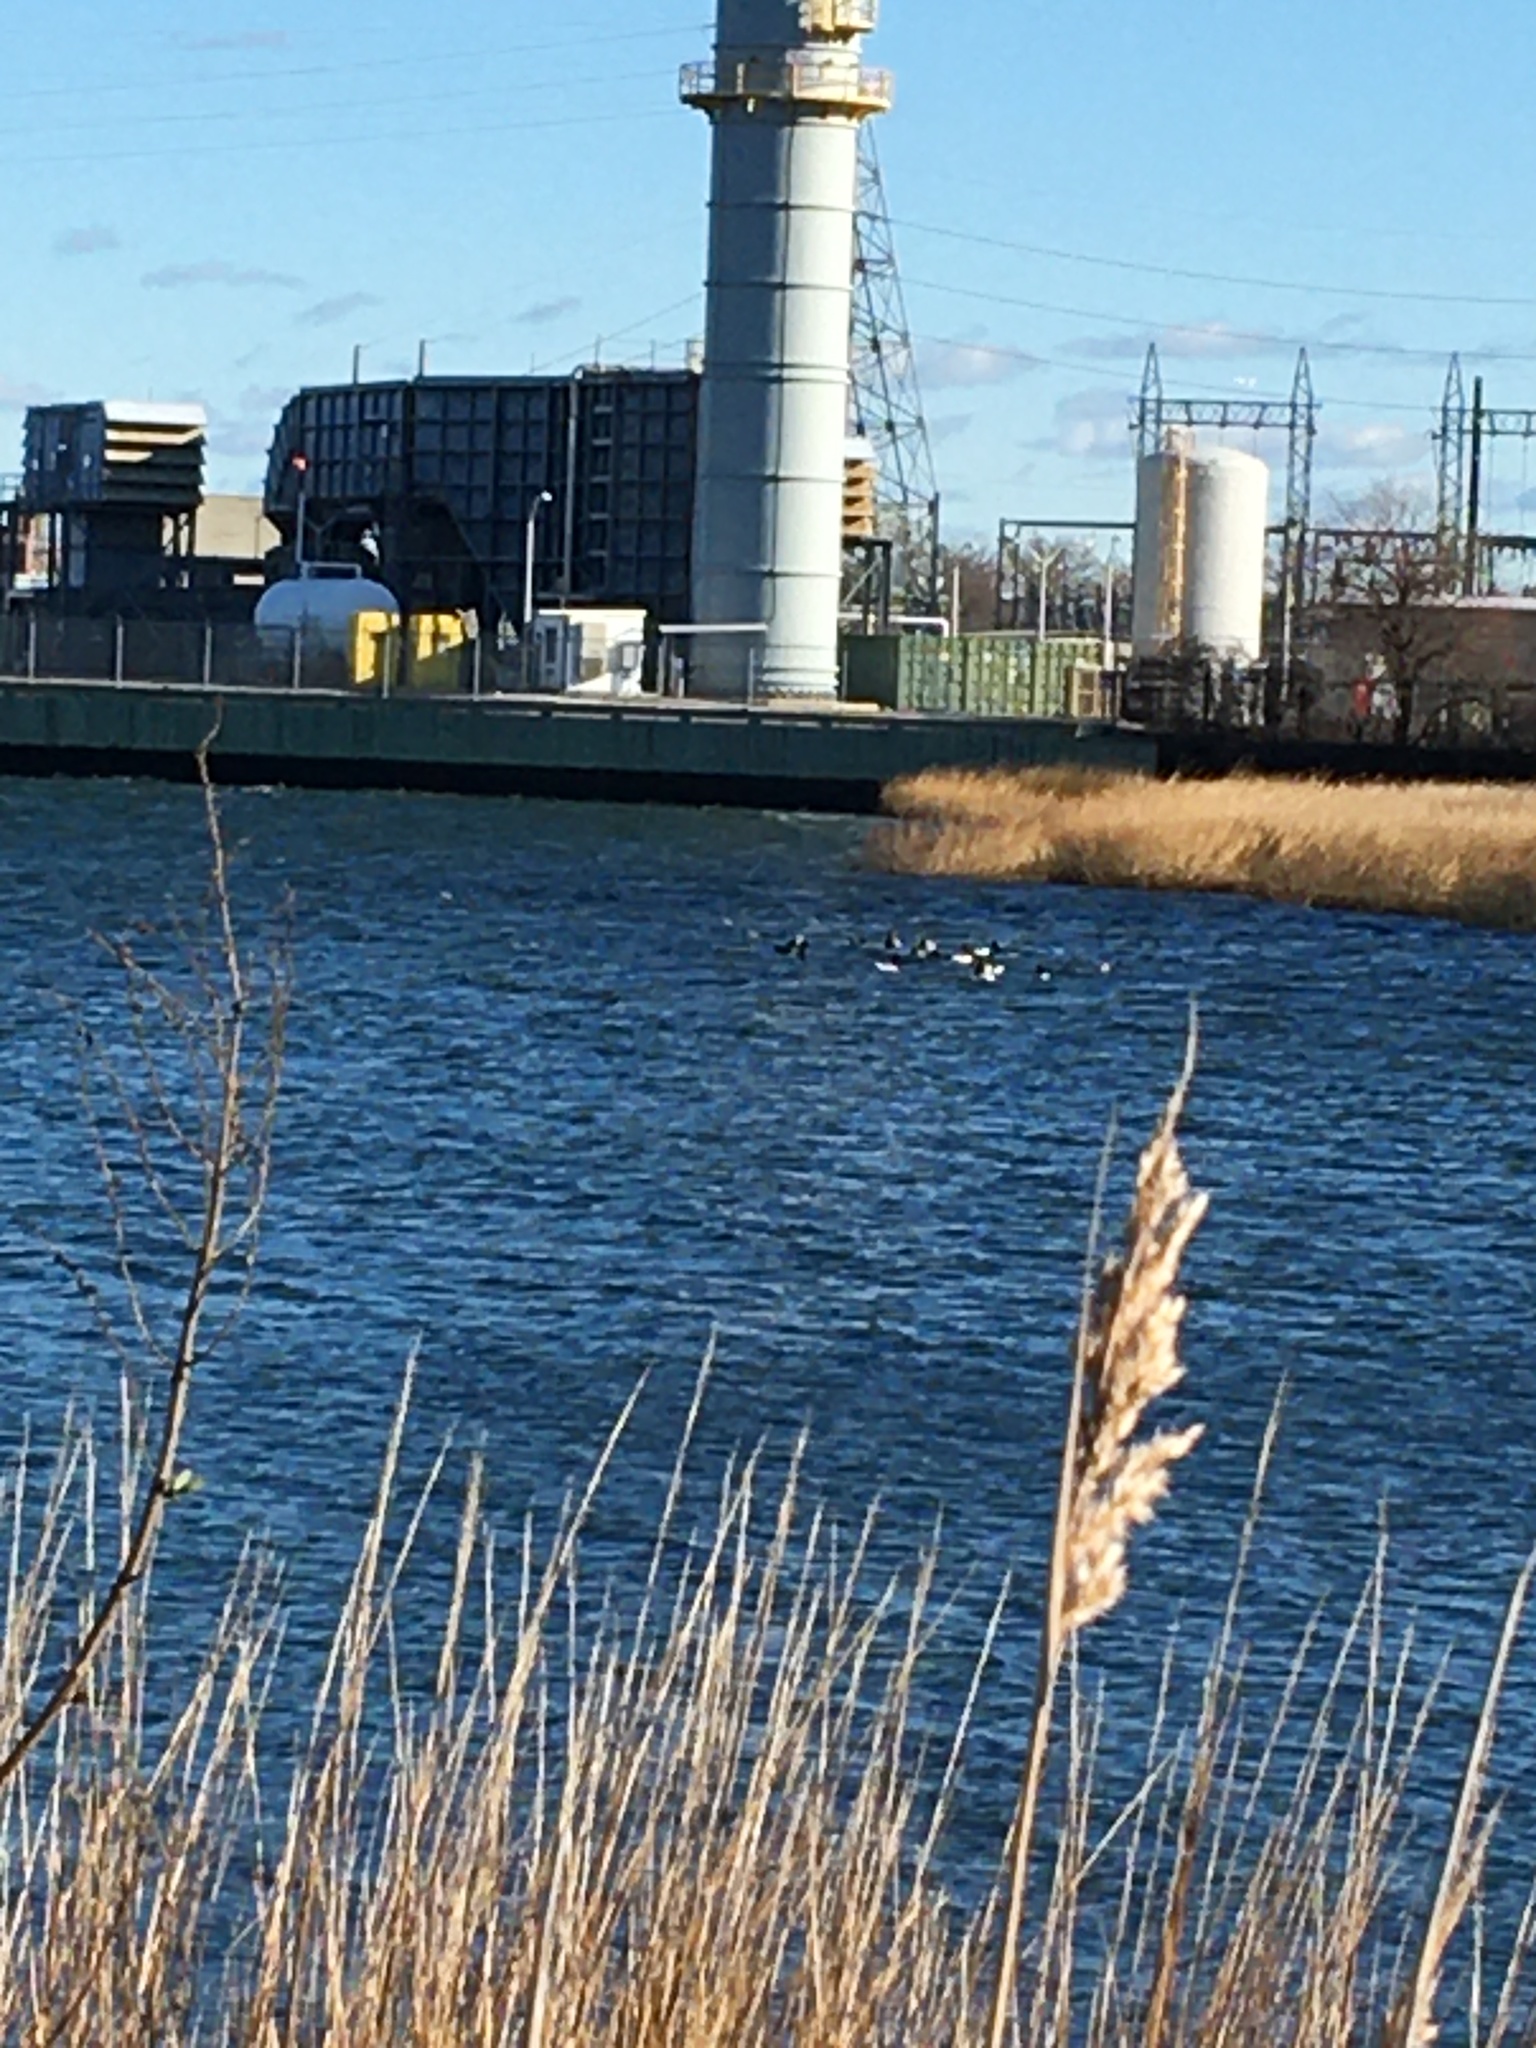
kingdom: Plantae
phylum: Tracheophyta
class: Liliopsida
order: Poales
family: Poaceae
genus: Phragmites
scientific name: Phragmites australis
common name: Common reed
